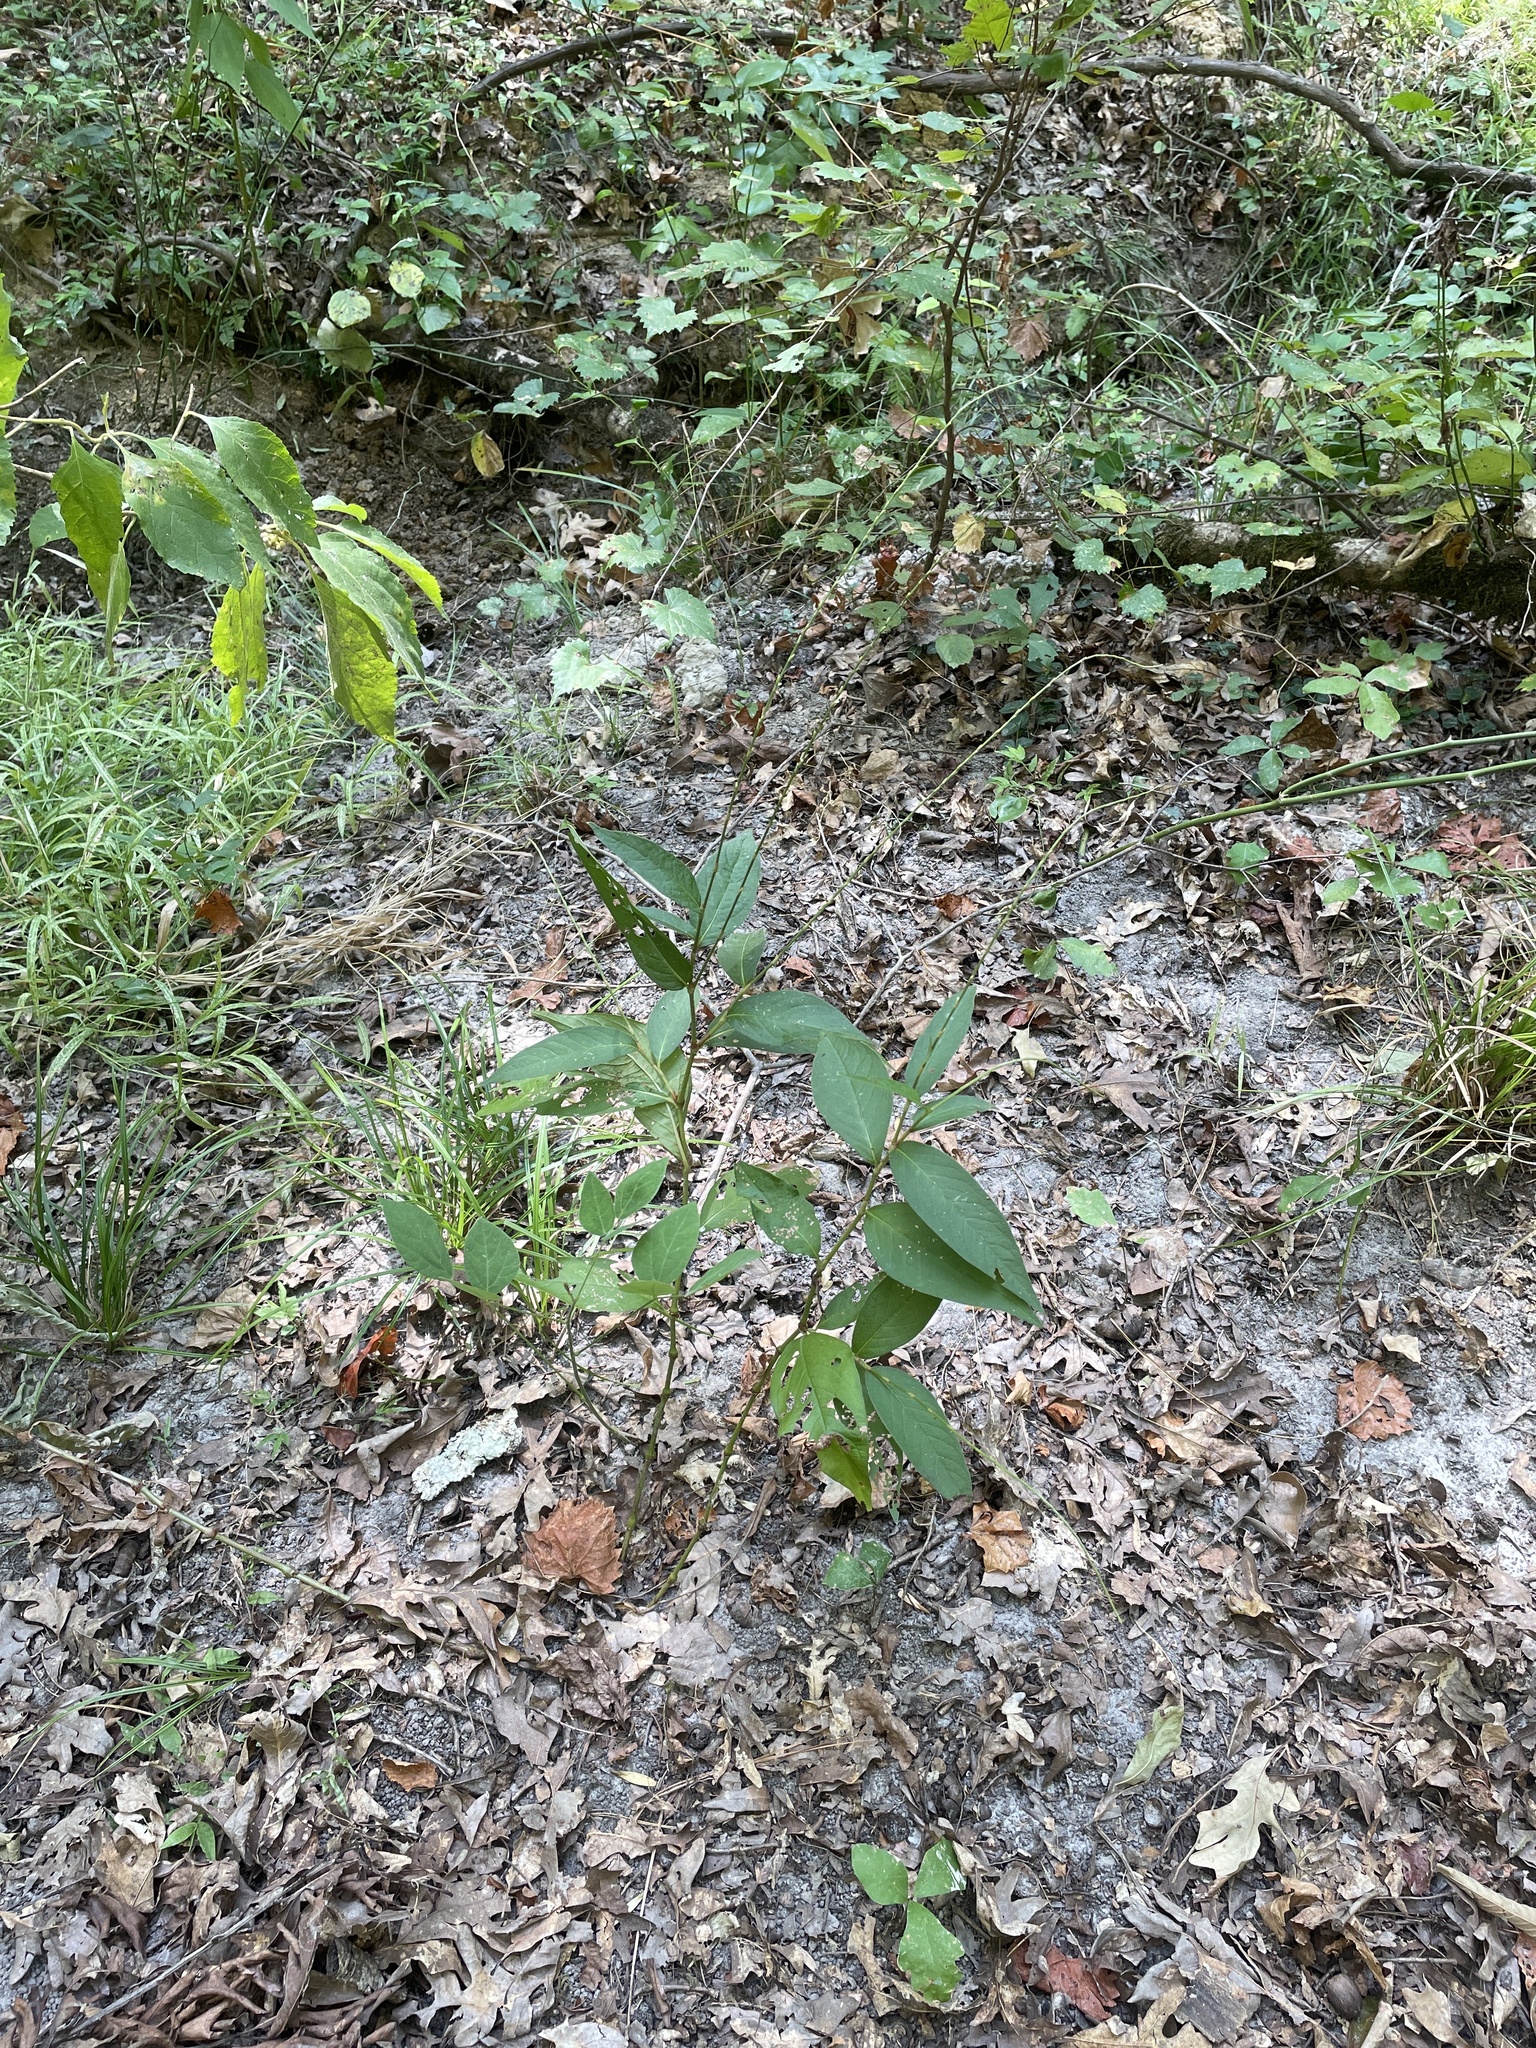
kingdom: Plantae
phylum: Tracheophyta
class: Magnoliopsida
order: Caryophyllales
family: Polygonaceae
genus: Persicaria
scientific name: Persicaria virginiana
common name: Jumpseed
